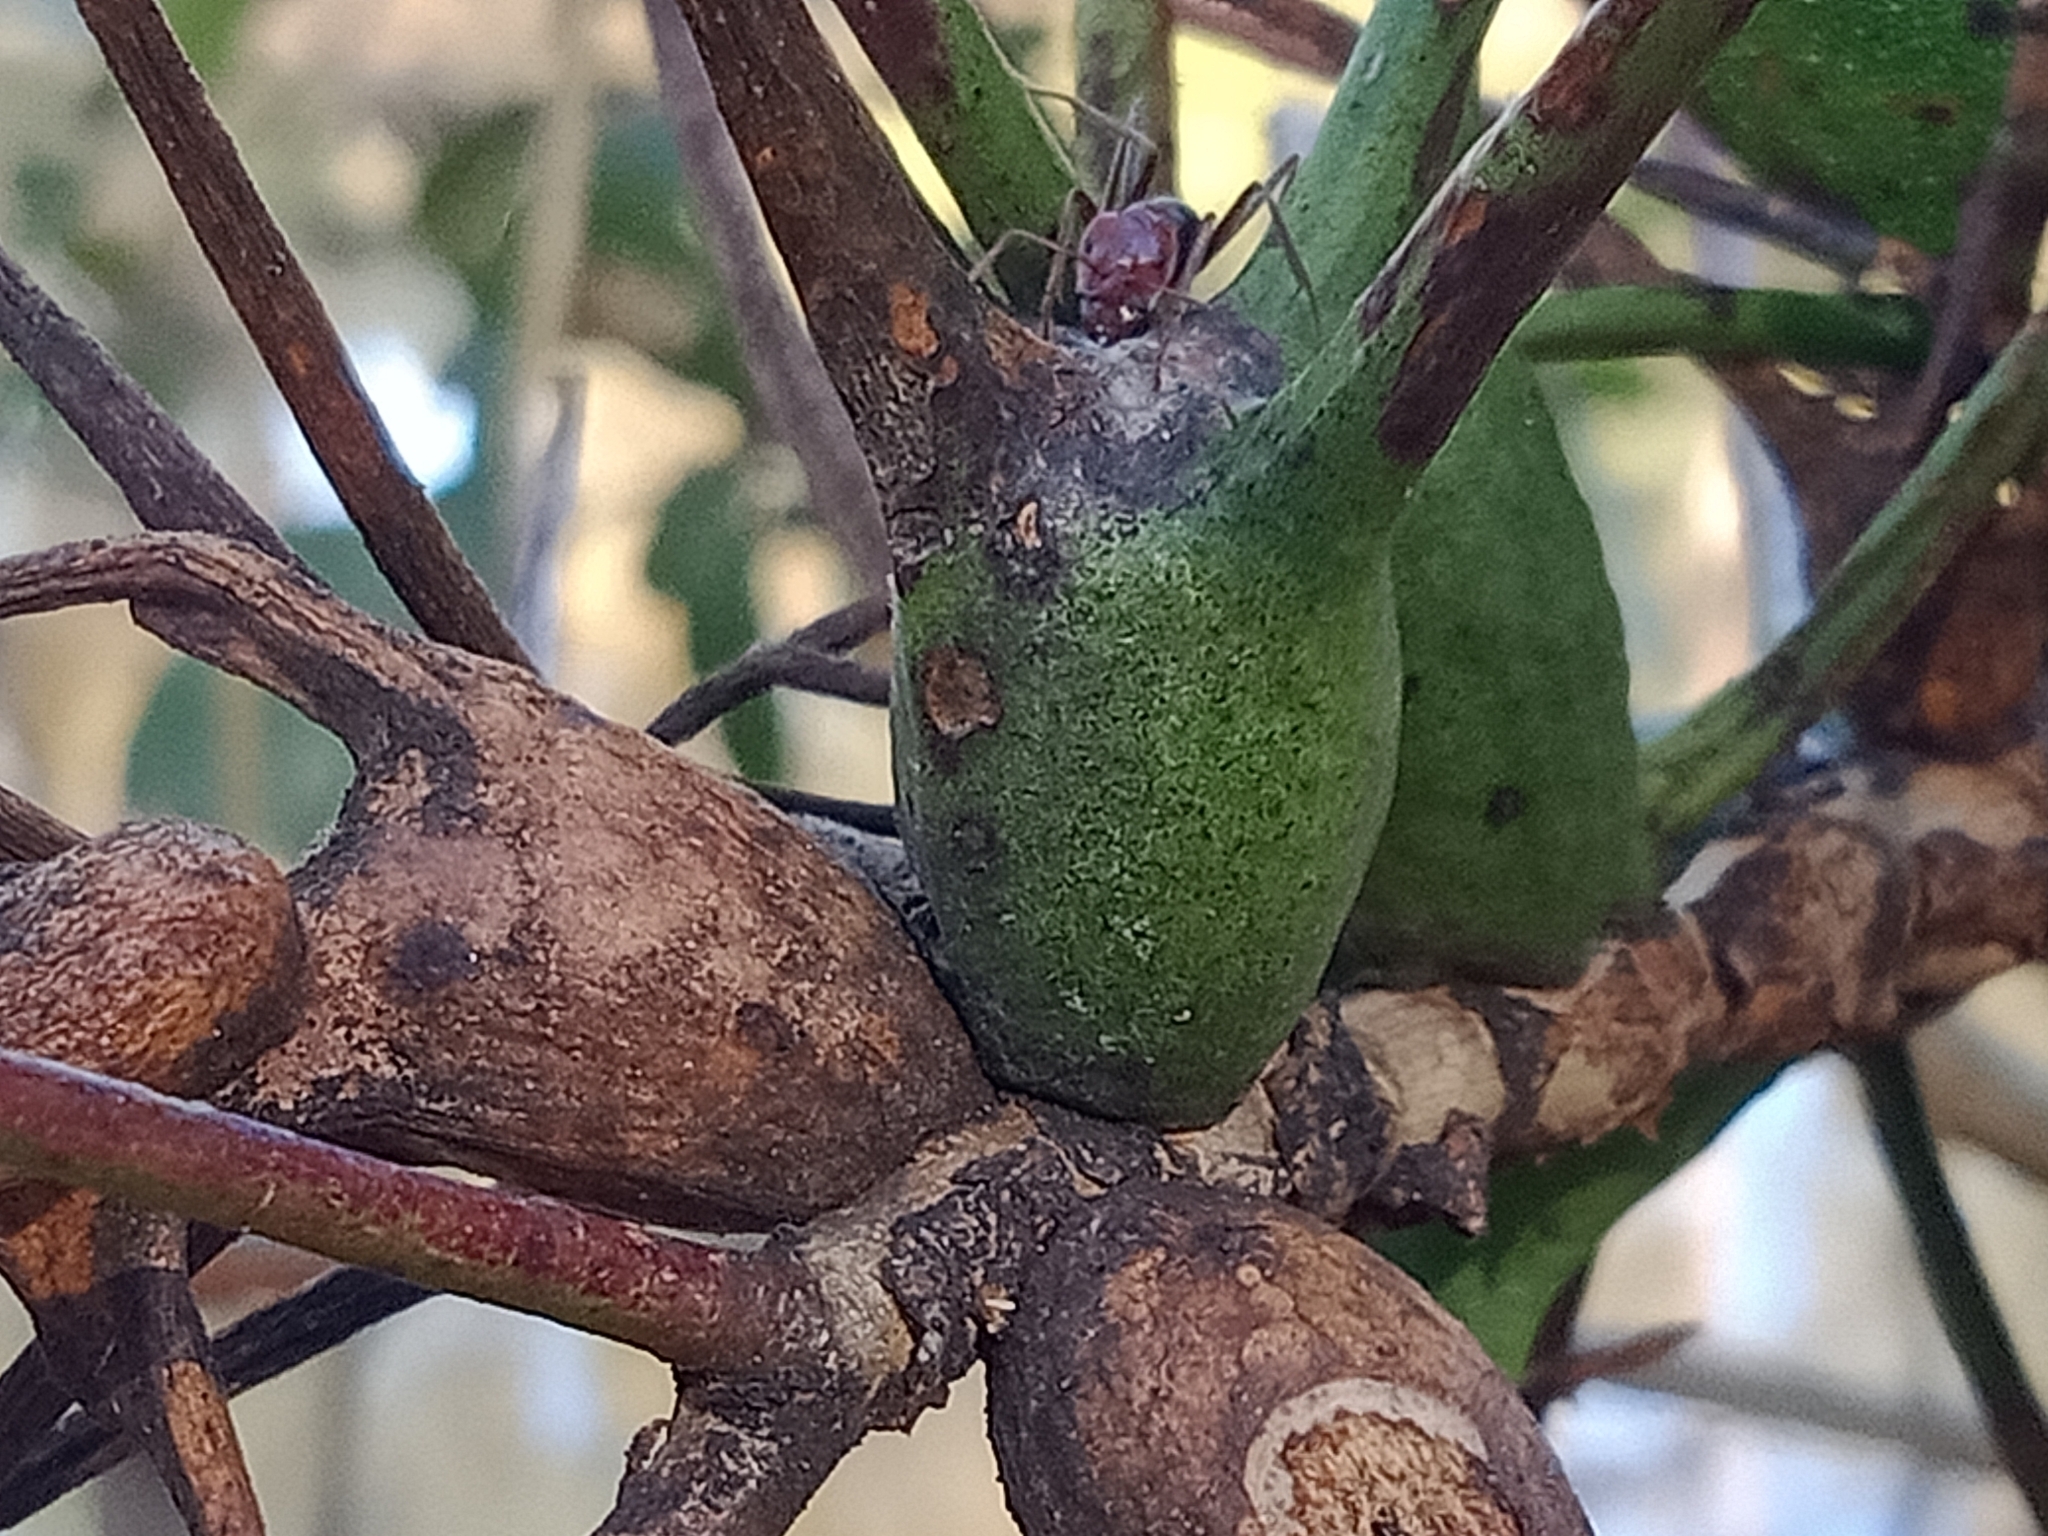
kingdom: Animalia
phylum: Arthropoda
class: Insecta
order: Hemiptera
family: Eriococcidae
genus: Apiomorpha
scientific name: Apiomorpha munita
